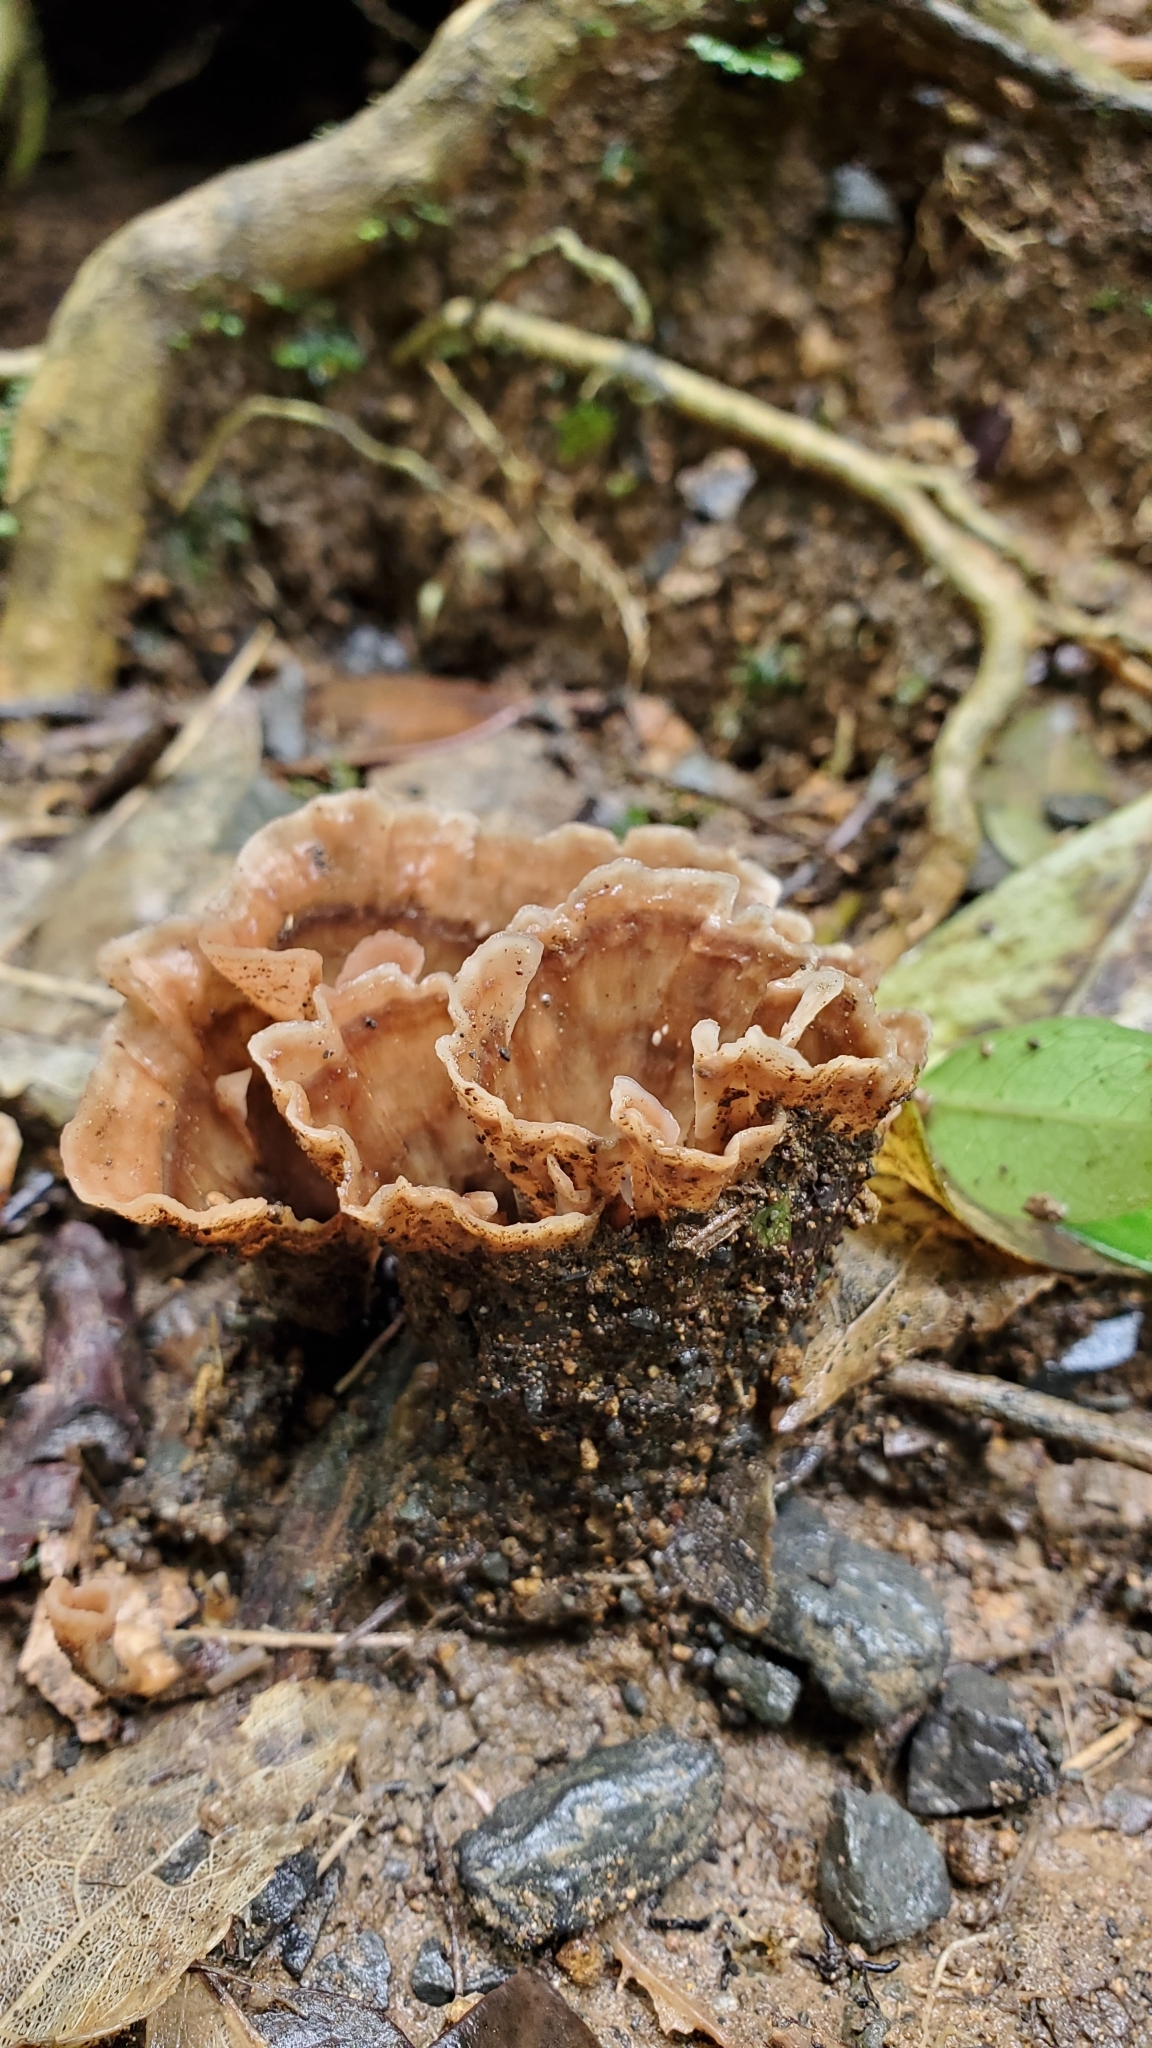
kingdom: Fungi
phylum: Basidiomycota
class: Agaricomycetes
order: Polyporales
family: Podoscyphaceae
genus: Podoscypha
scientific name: Podoscypha petalodes
